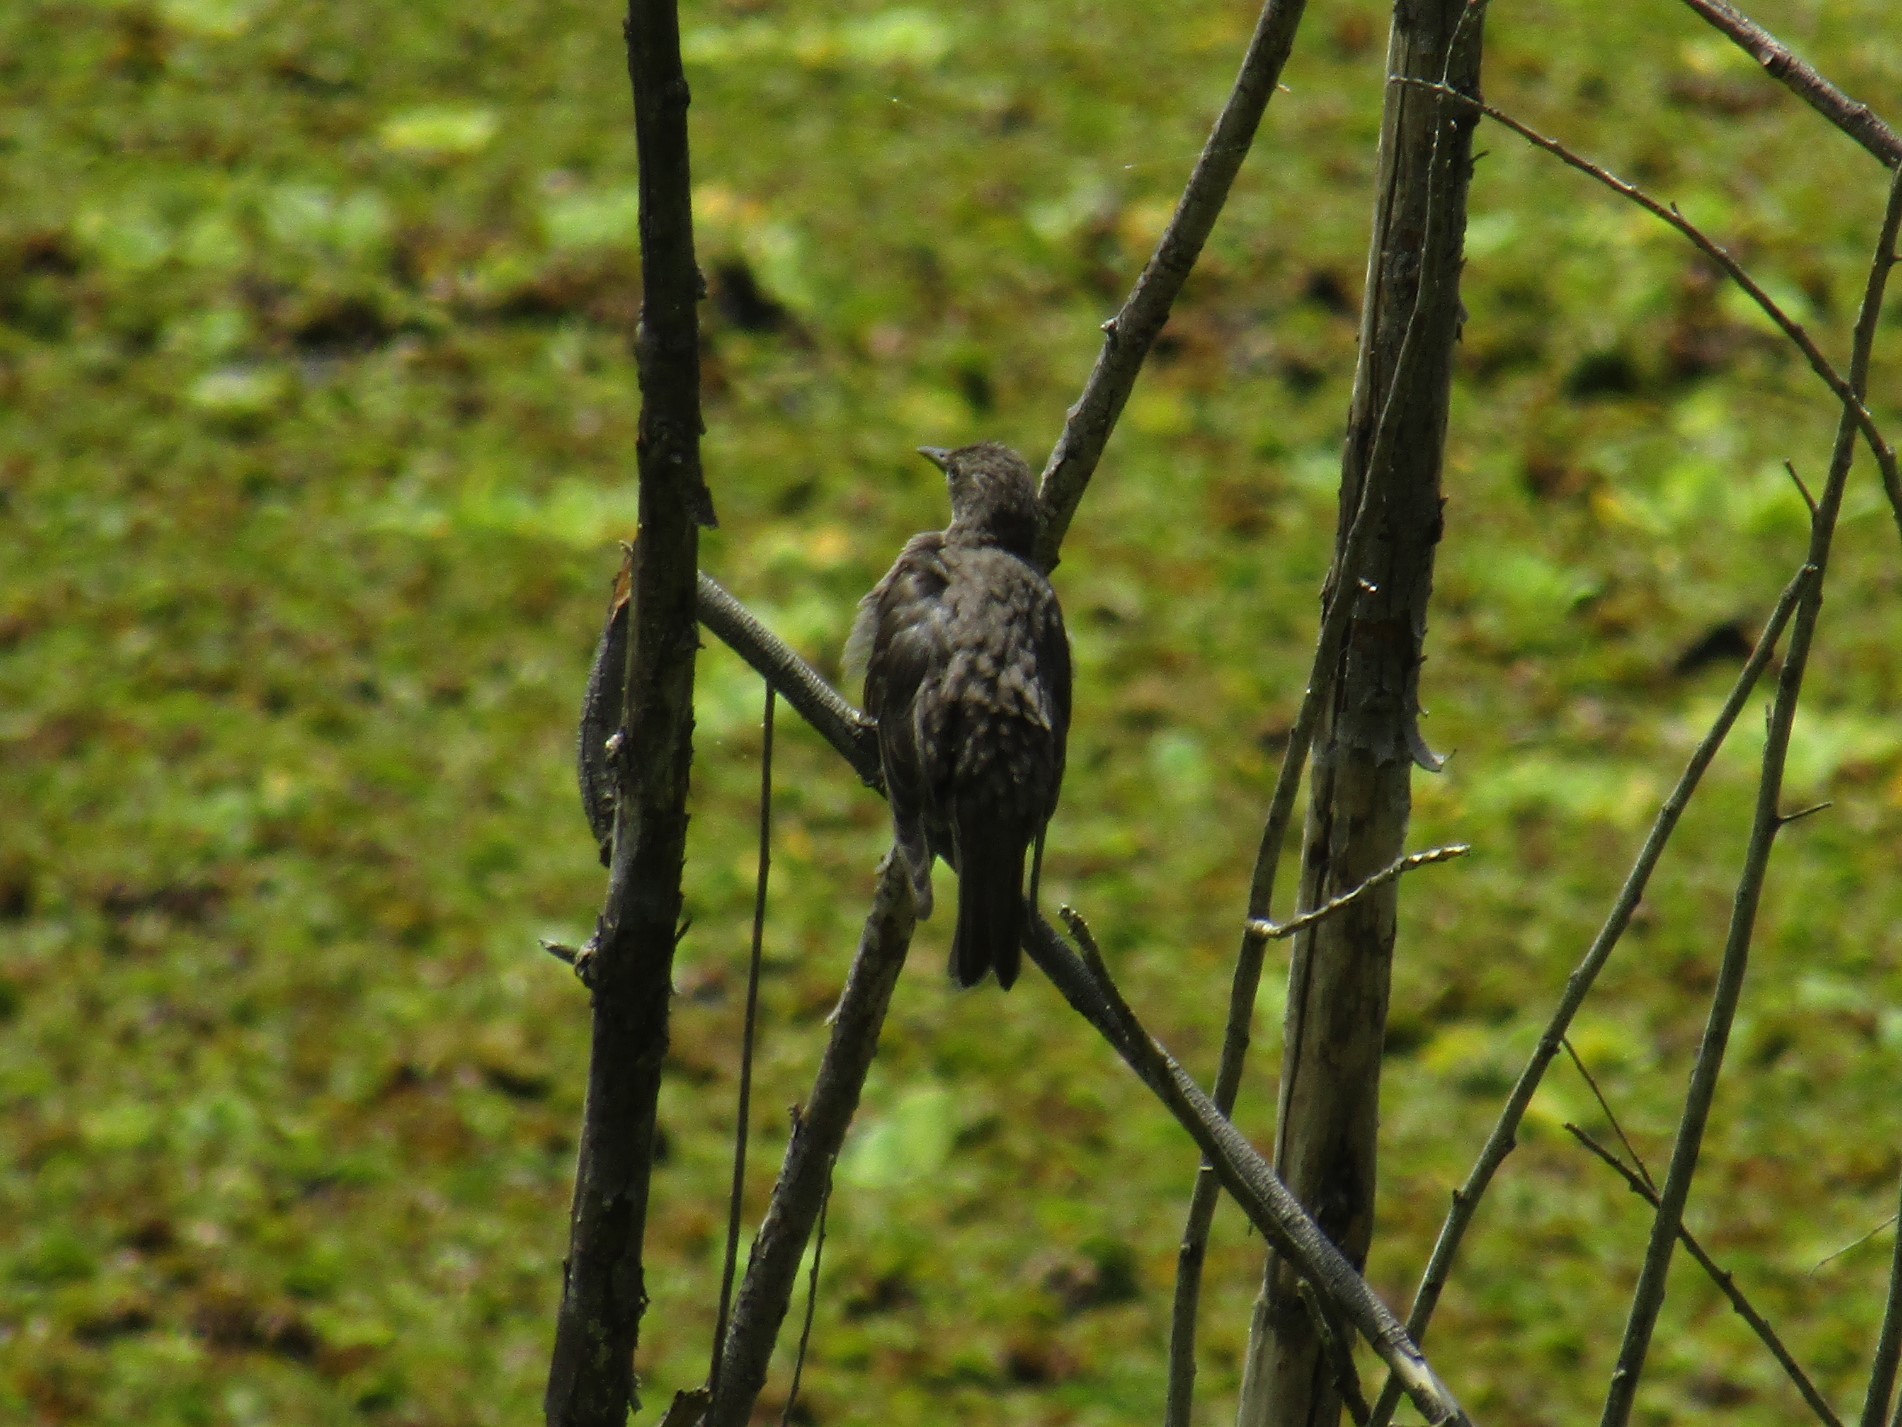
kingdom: Animalia
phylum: Chordata
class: Aves
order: Passeriformes
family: Sturnidae
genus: Sturnus
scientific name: Sturnus vulgaris
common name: Common starling
